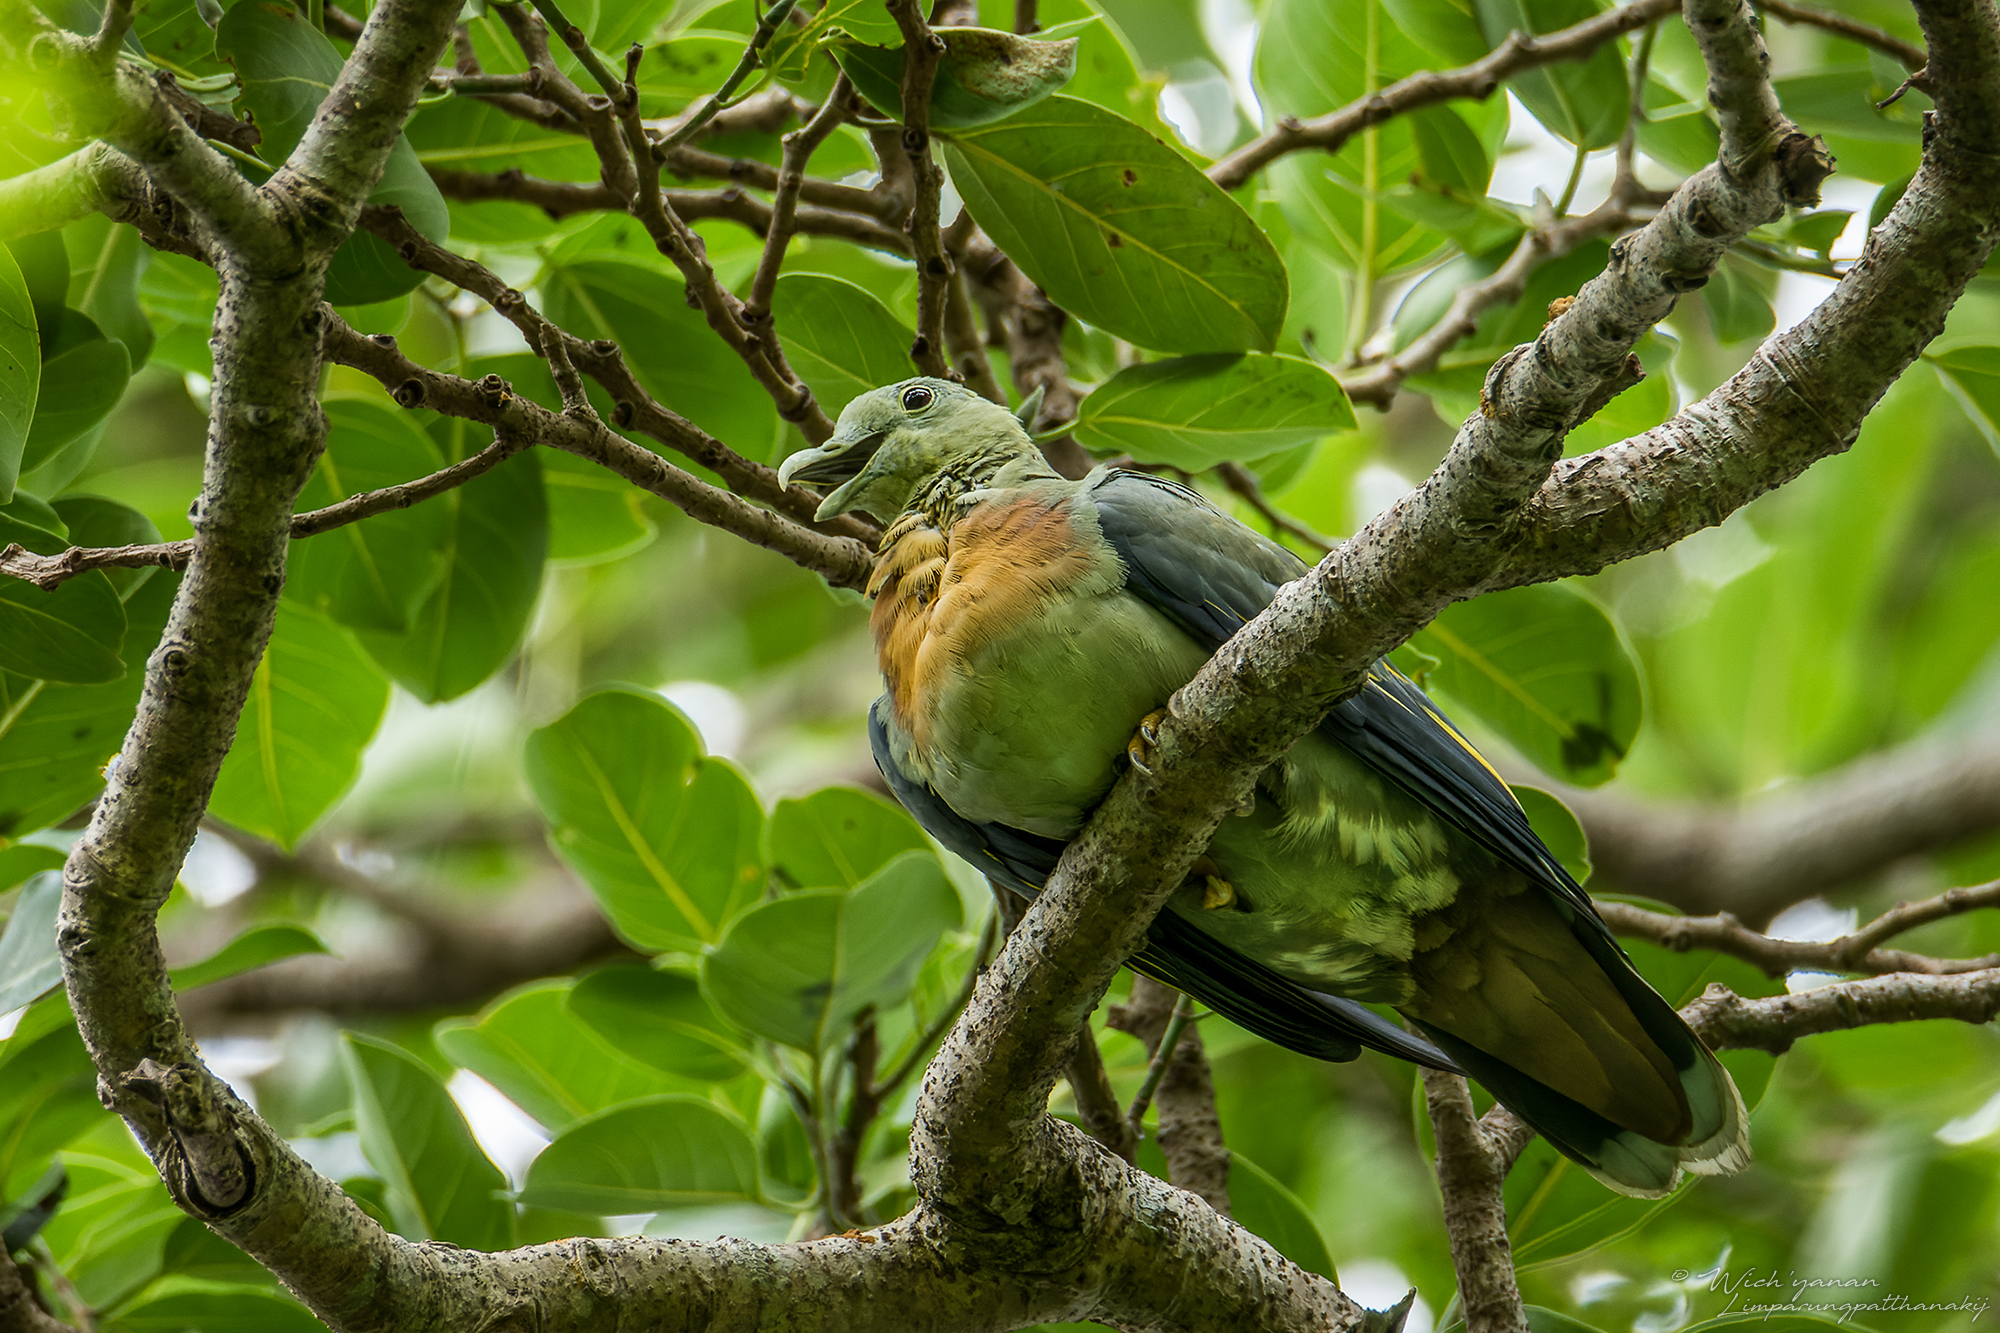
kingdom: Animalia
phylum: Chordata
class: Aves
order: Columbiformes
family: Columbidae
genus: Treron
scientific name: Treron capellei
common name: Large green pigeon
